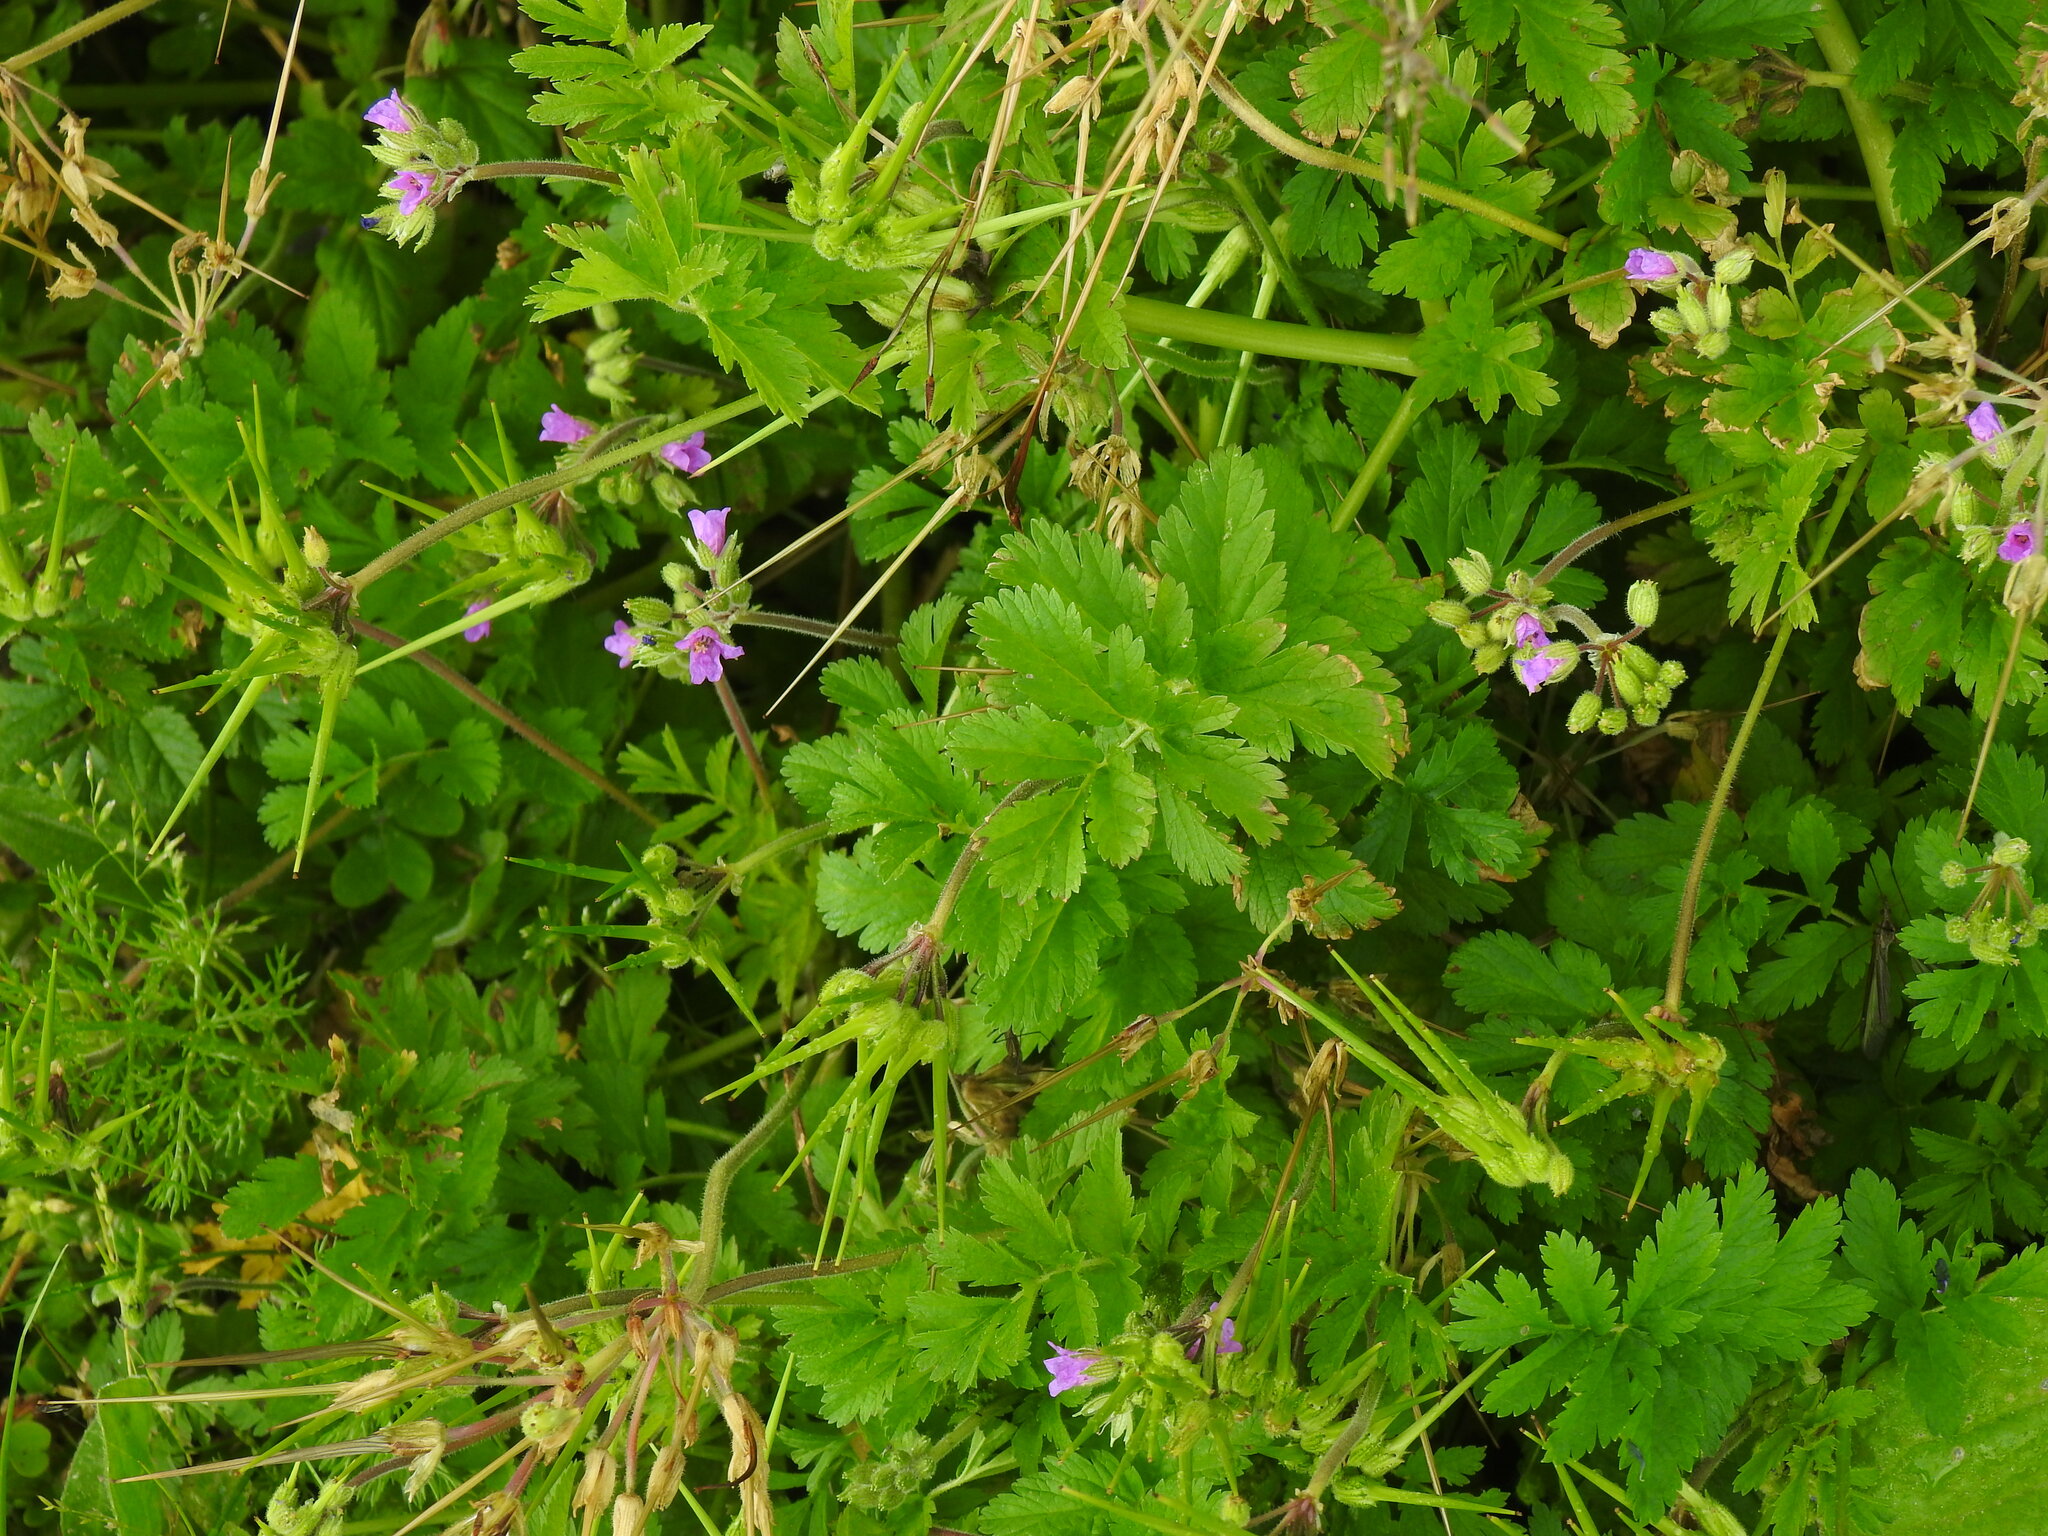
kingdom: Plantae
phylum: Tracheophyta
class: Magnoliopsida
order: Geraniales
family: Geraniaceae
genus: Erodium
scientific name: Erodium moschatum
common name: Musk stork's-bill
